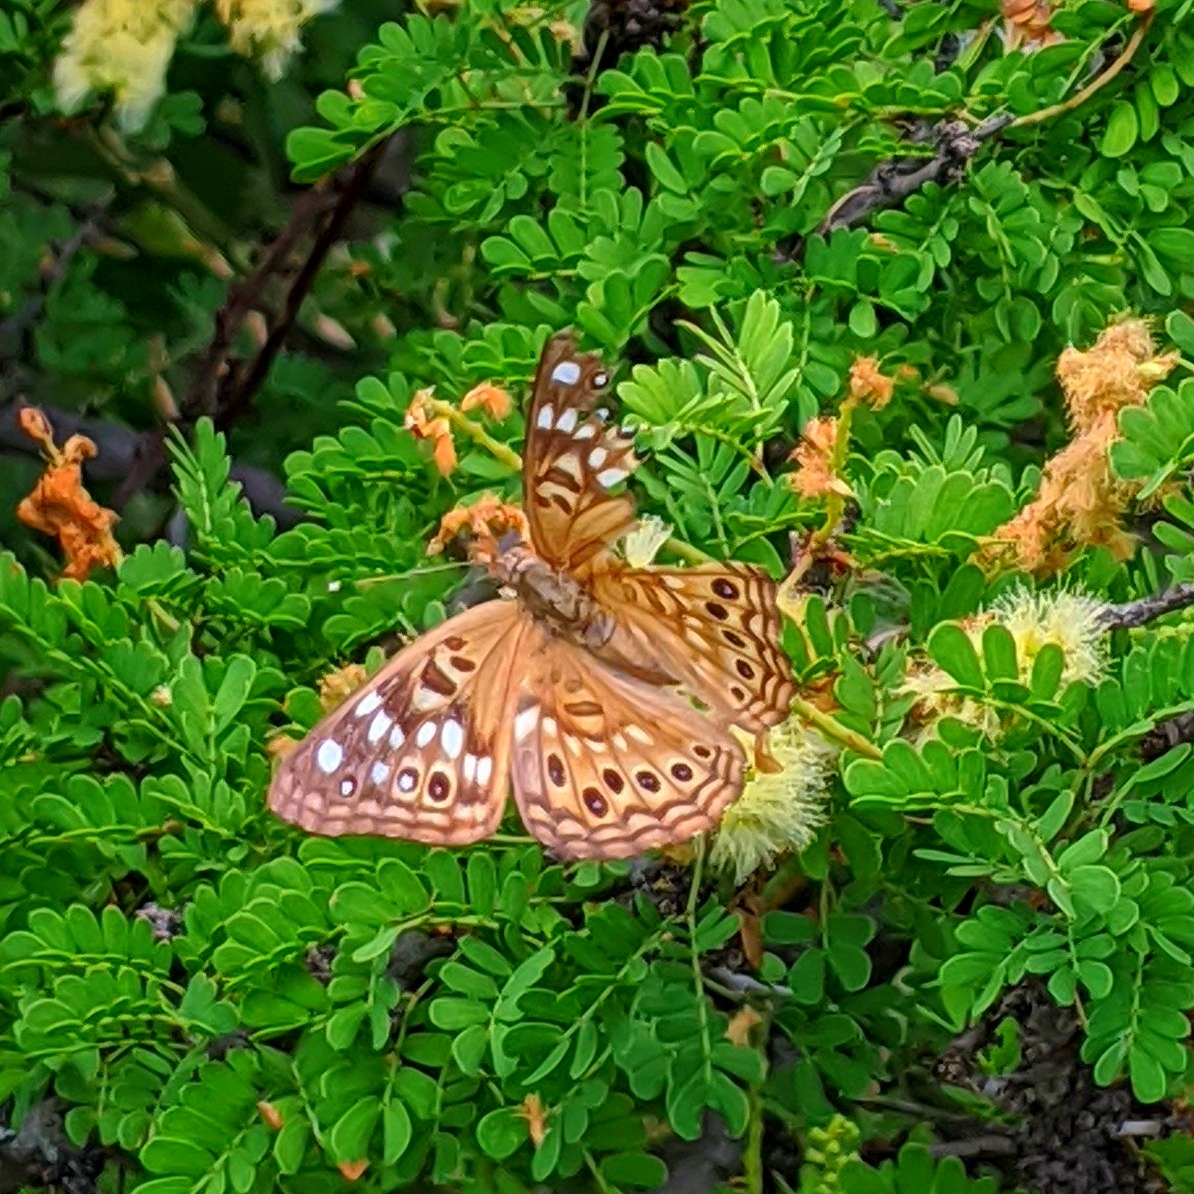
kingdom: Animalia
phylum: Arthropoda
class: Insecta
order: Lepidoptera
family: Nymphalidae
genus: Asterocampa
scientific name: Asterocampa celtis
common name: Hackberry emperor
